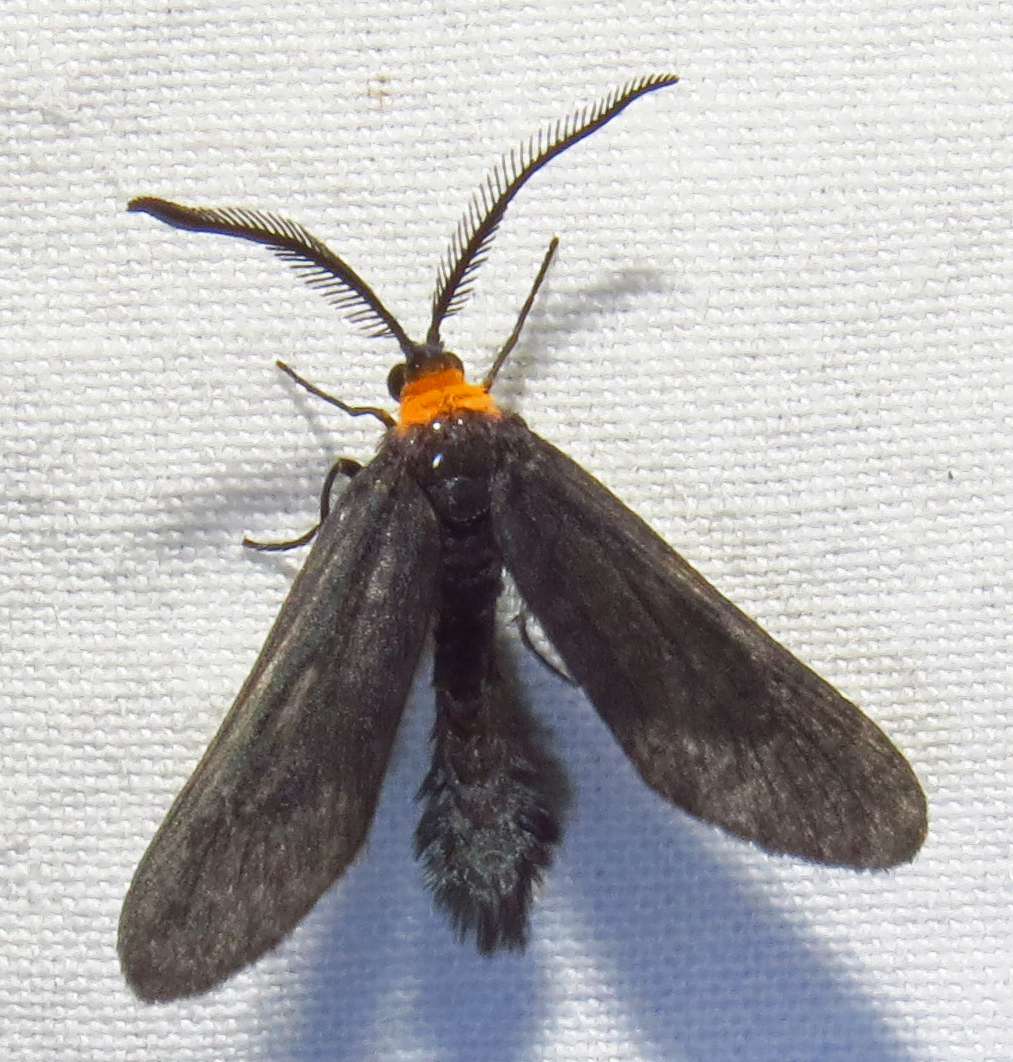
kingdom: Animalia
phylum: Arthropoda
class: Insecta
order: Lepidoptera
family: Zygaenidae
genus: Harrisina
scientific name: Harrisina americana
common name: Grapeleaf skeletonizer moth
